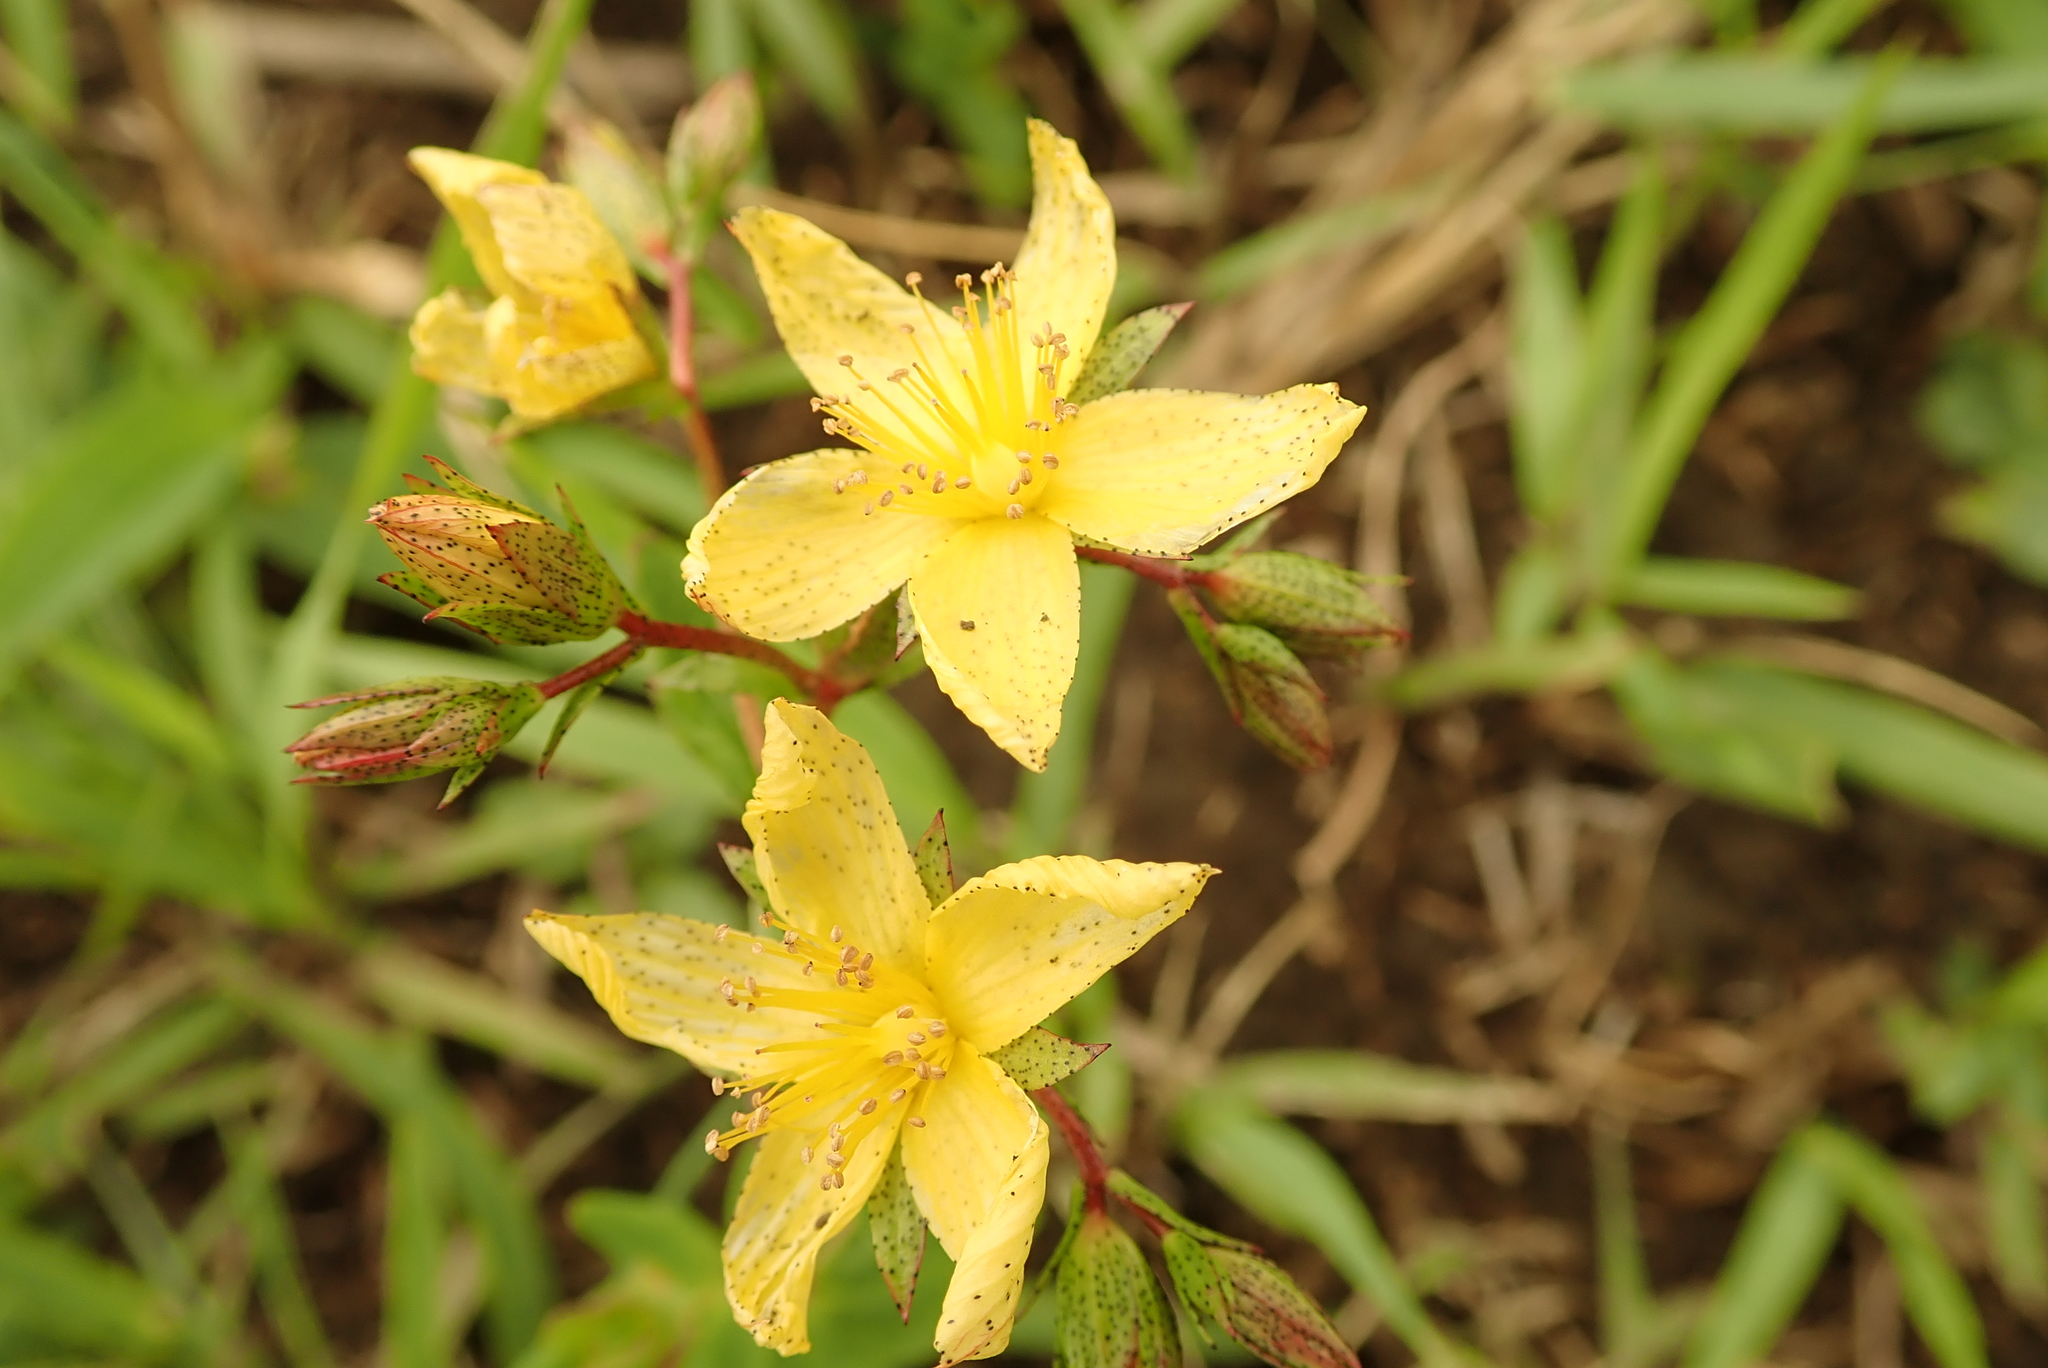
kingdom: Plantae
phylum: Tracheophyta
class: Magnoliopsida
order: Malpighiales
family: Hypericaceae
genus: Hypericum
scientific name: Hypericum aethiopicum
